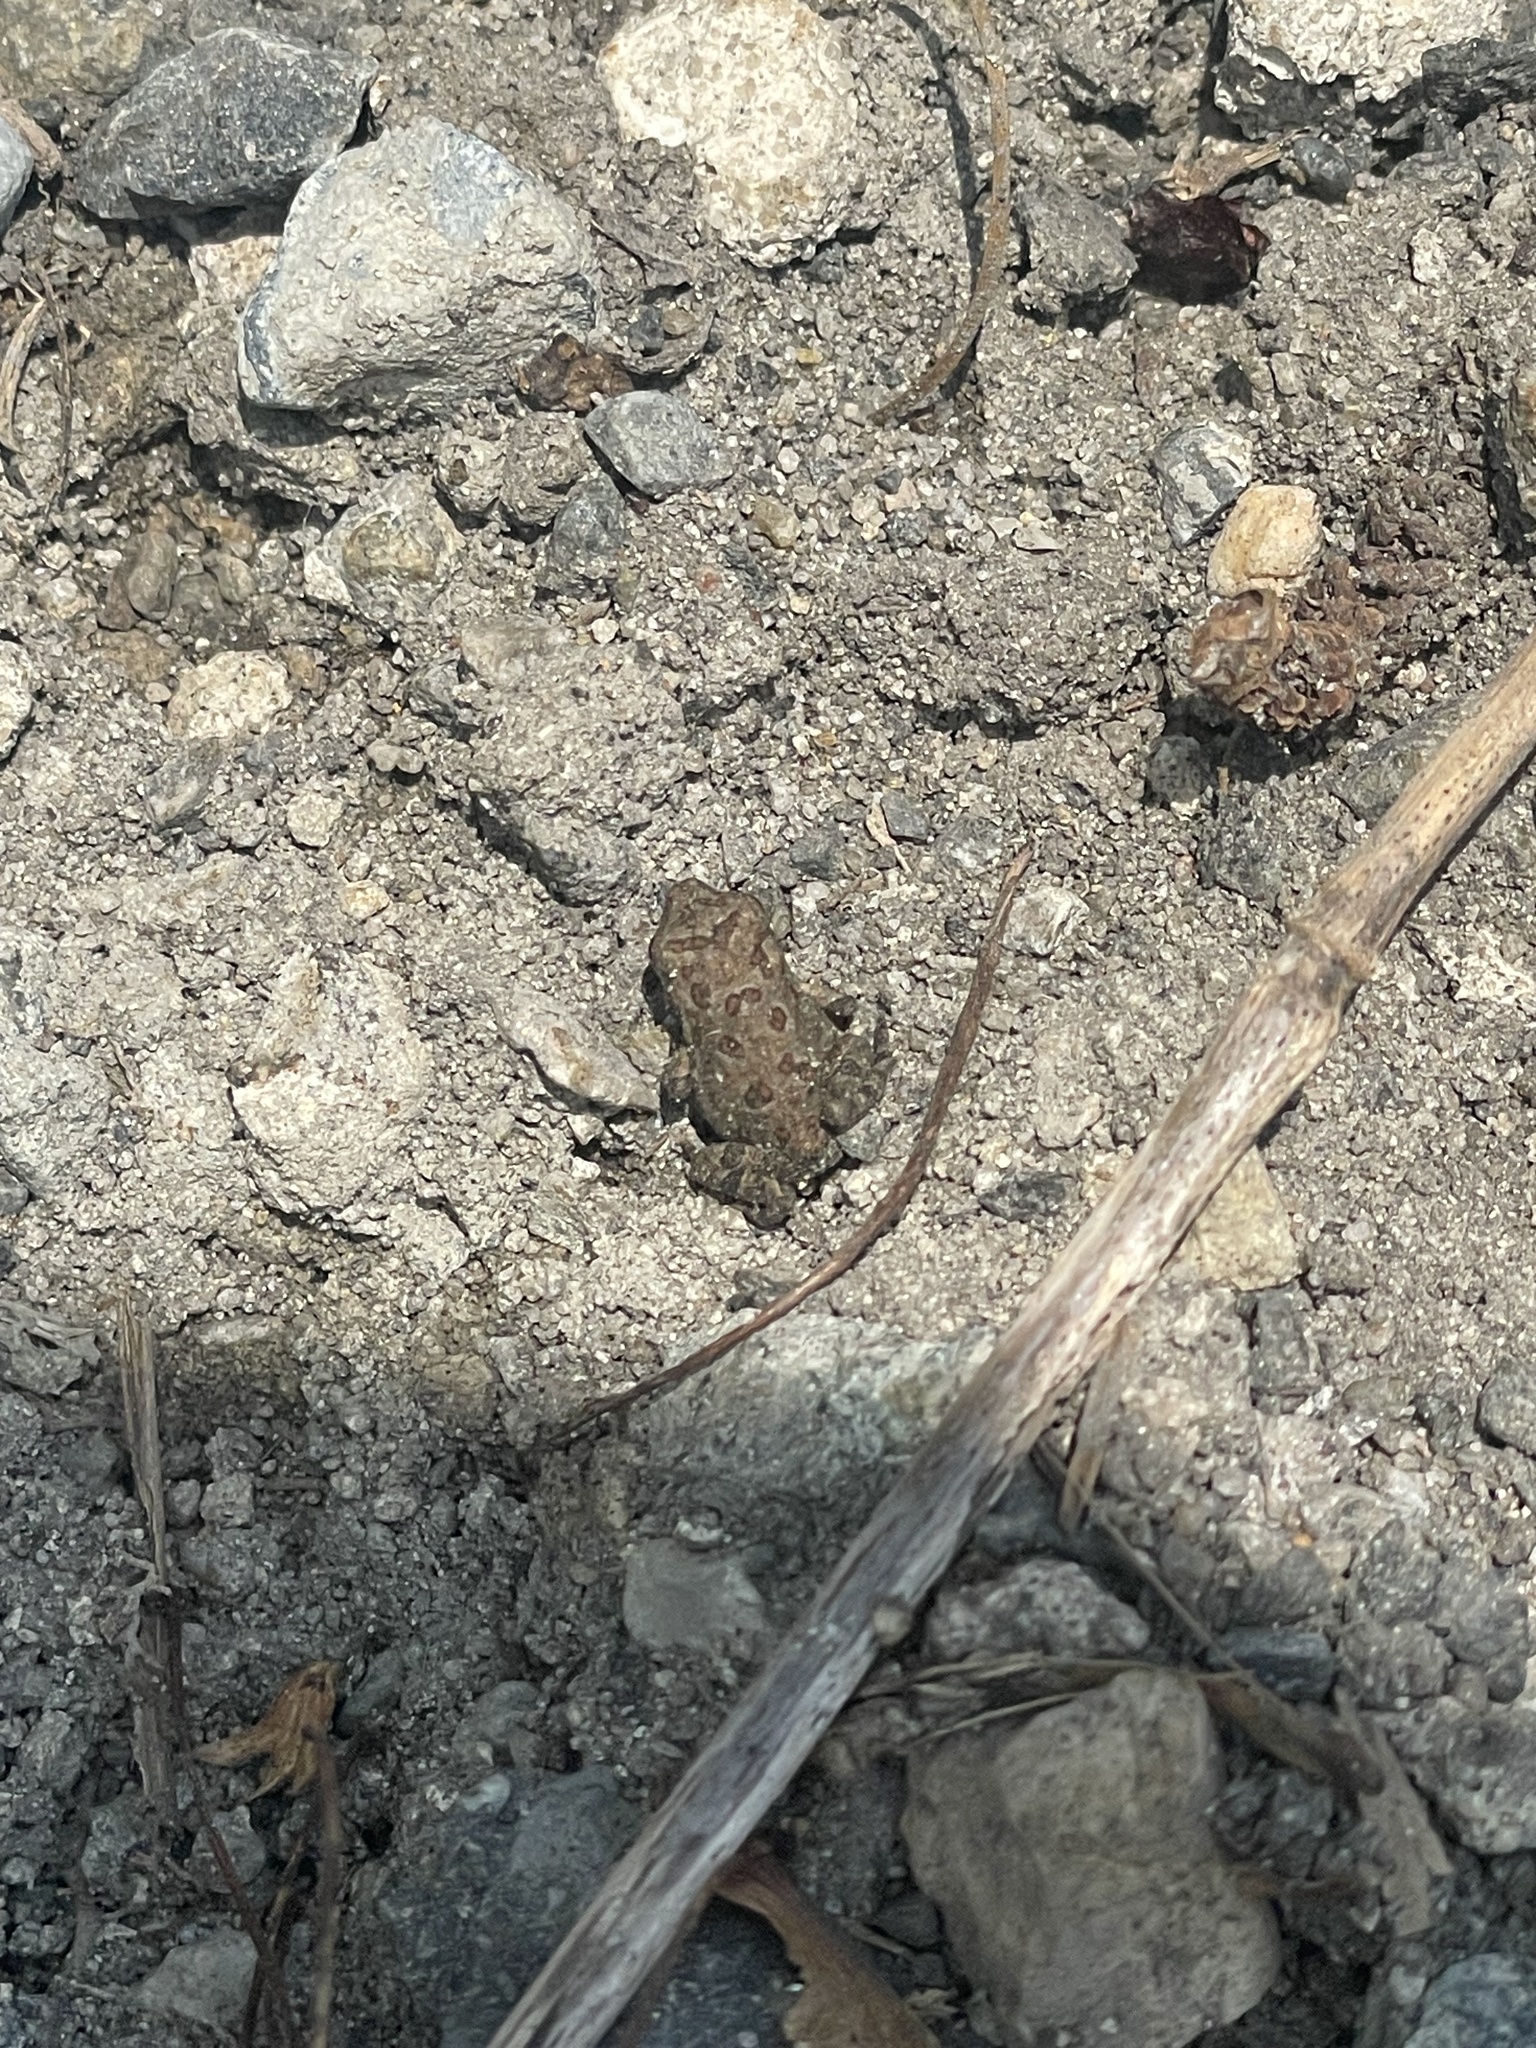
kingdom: Animalia
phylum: Chordata
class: Amphibia
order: Anura
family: Bufonidae
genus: Anaxyrus
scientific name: Anaxyrus fowleri
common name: Fowler's toad
